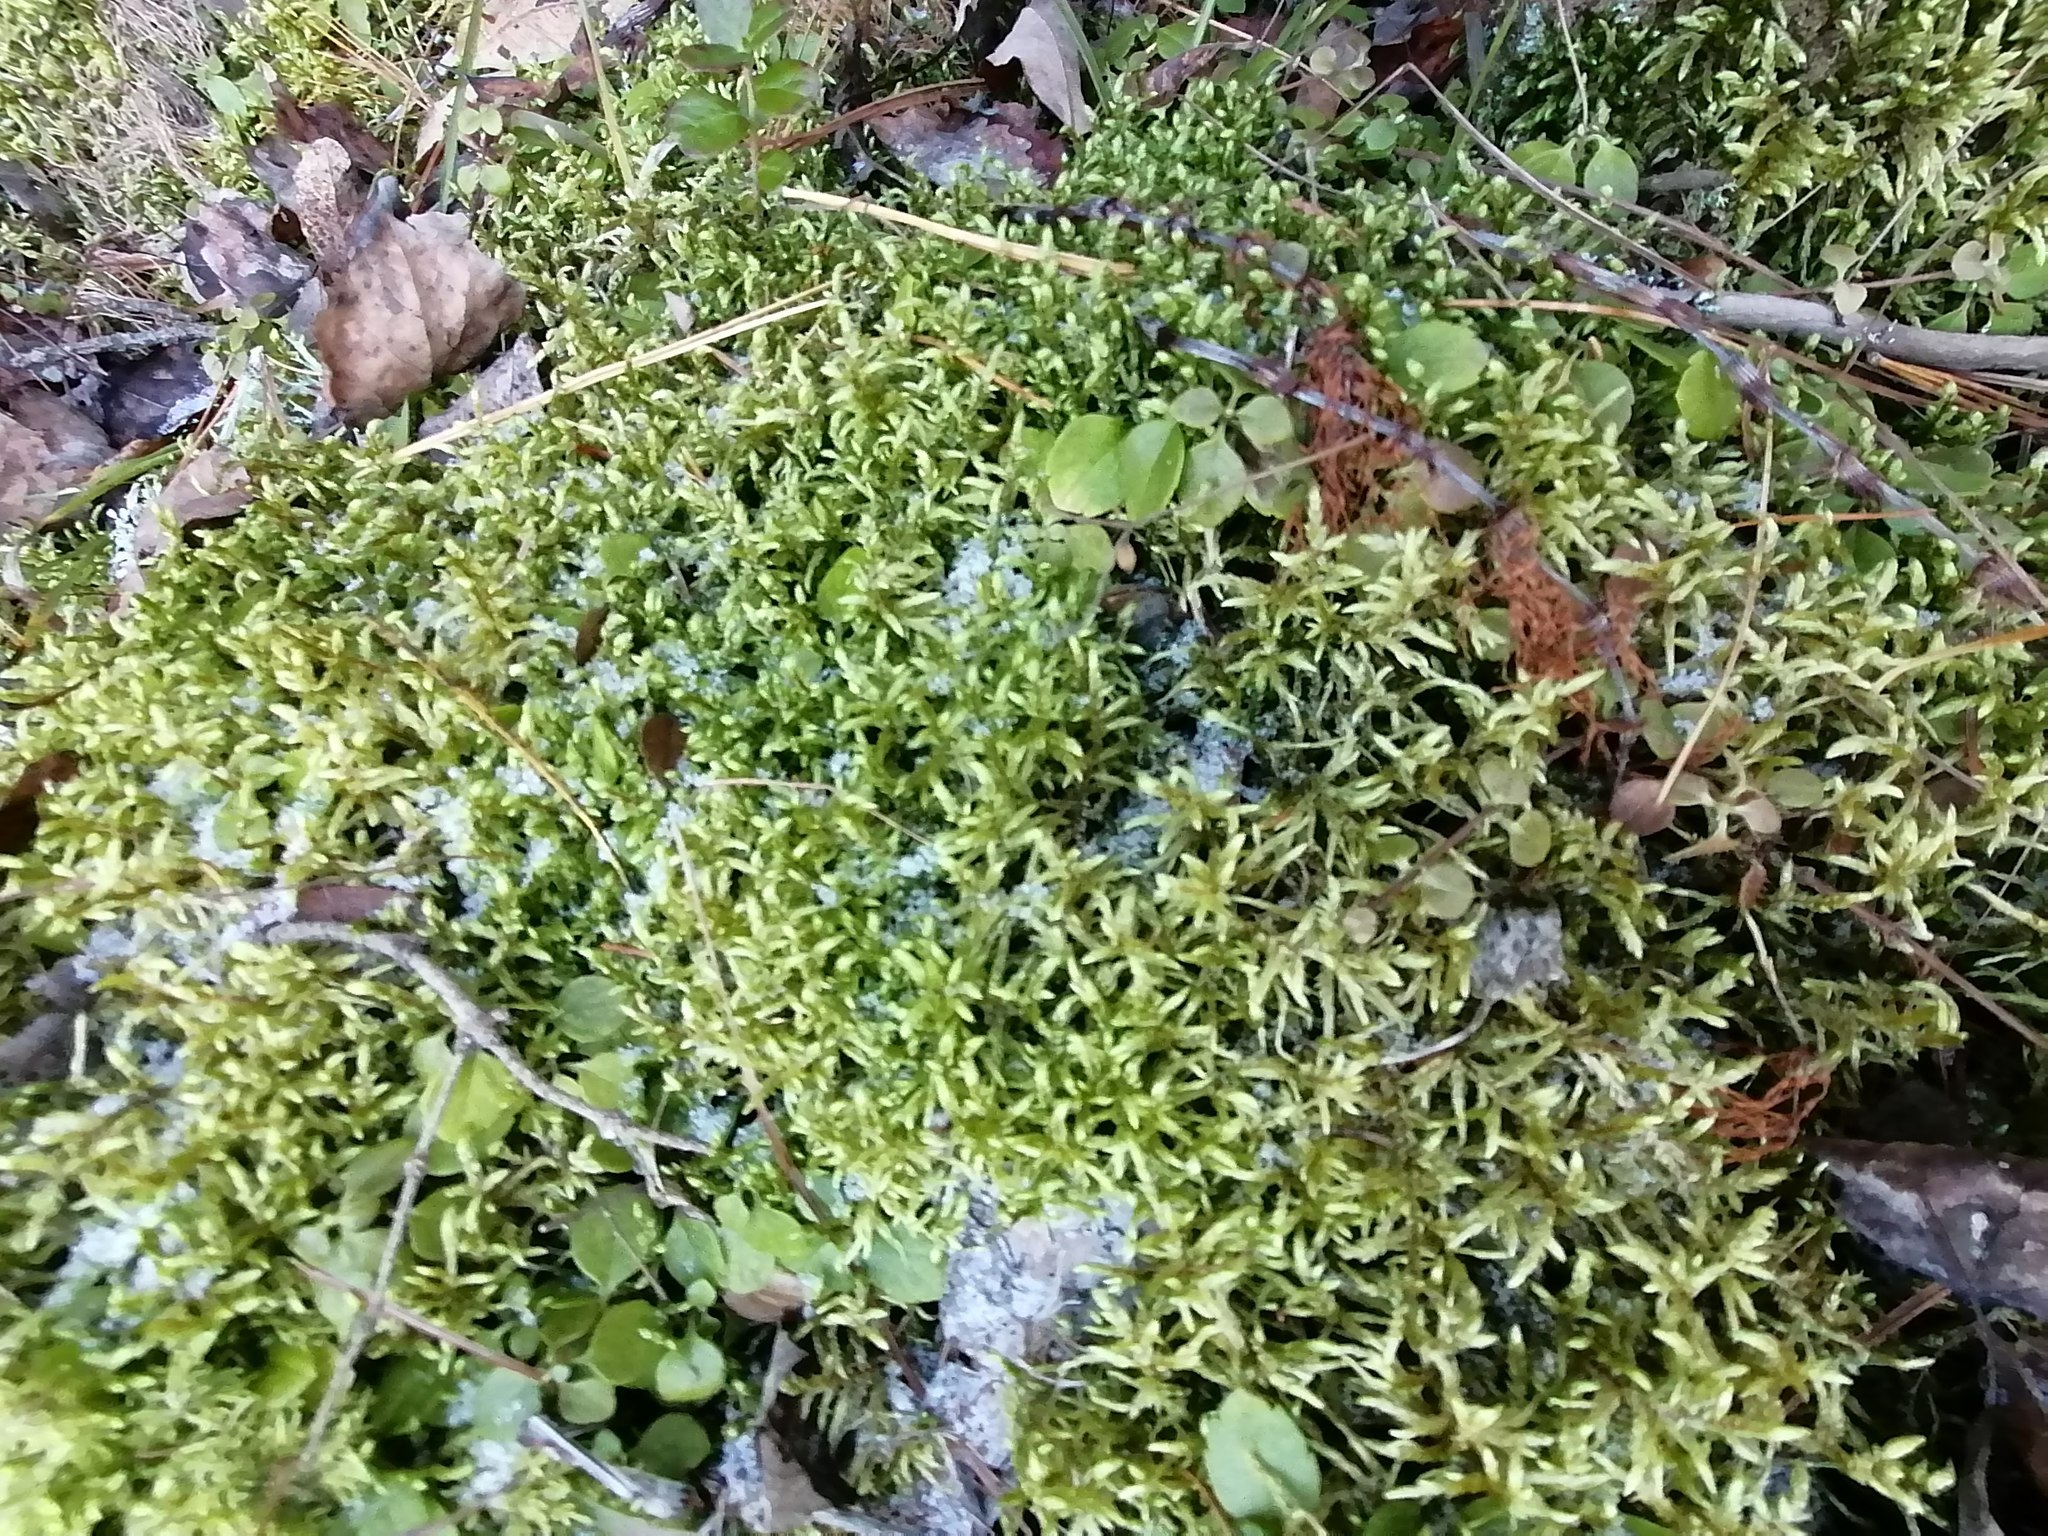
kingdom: Plantae
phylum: Bryophyta
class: Bryopsida
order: Hypnales
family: Hylocomiaceae
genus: Pleurozium
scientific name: Pleurozium schreberi
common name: Red-stemmed feather moss
